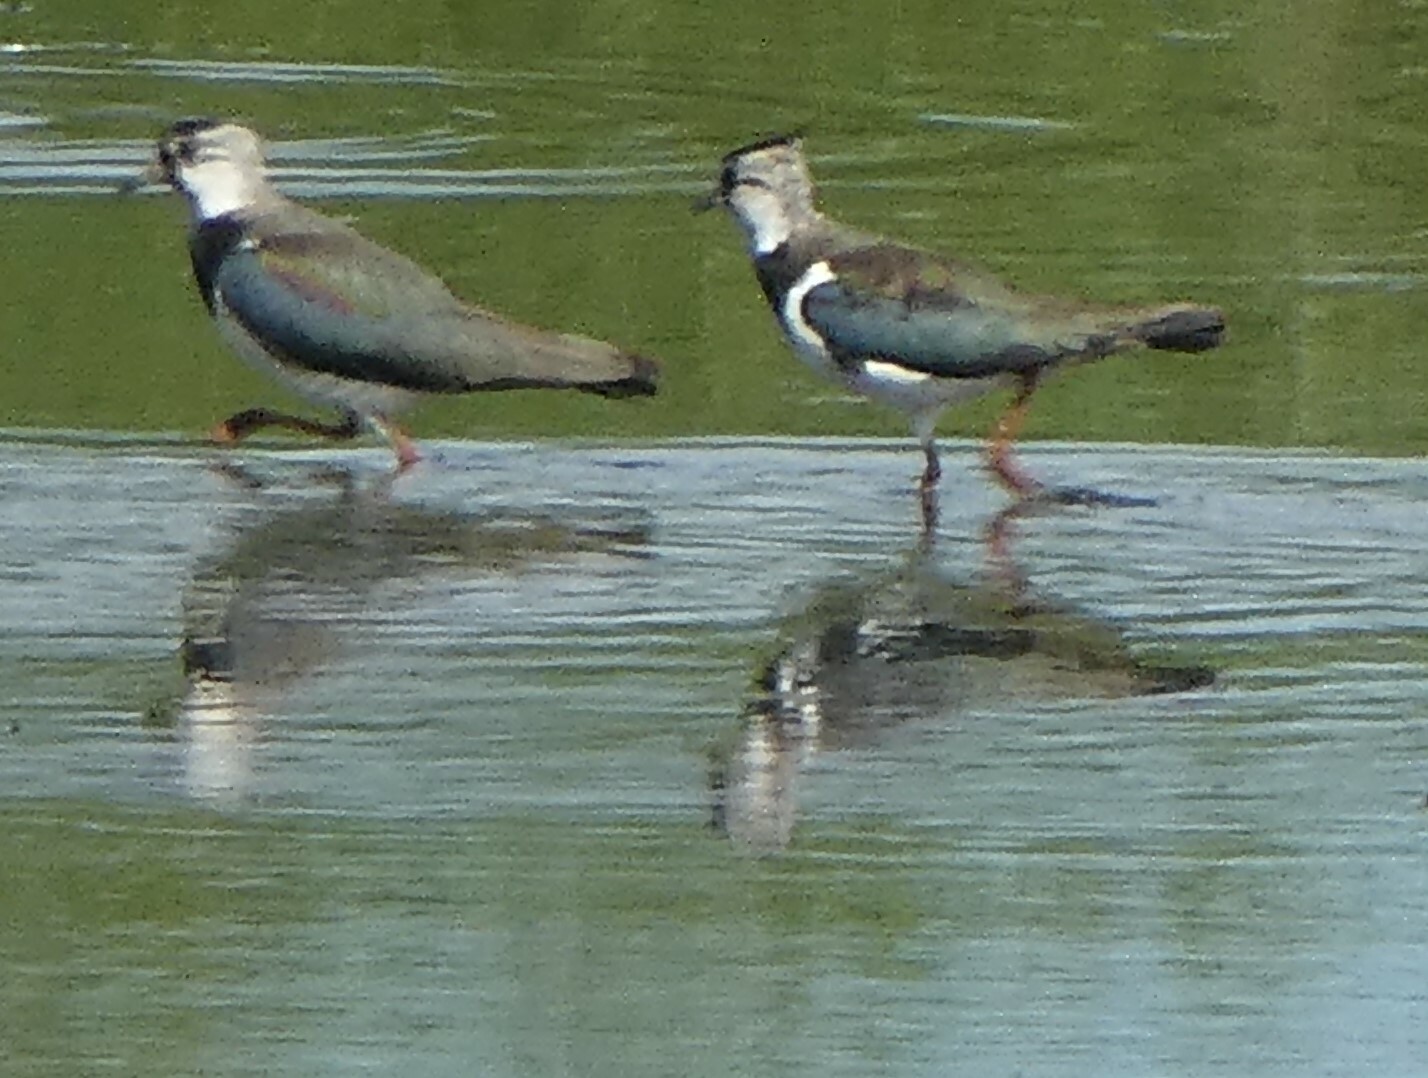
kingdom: Animalia
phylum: Chordata
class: Aves
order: Charadriiformes
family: Charadriidae
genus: Vanellus
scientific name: Vanellus vanellus
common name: Northern lapwing
